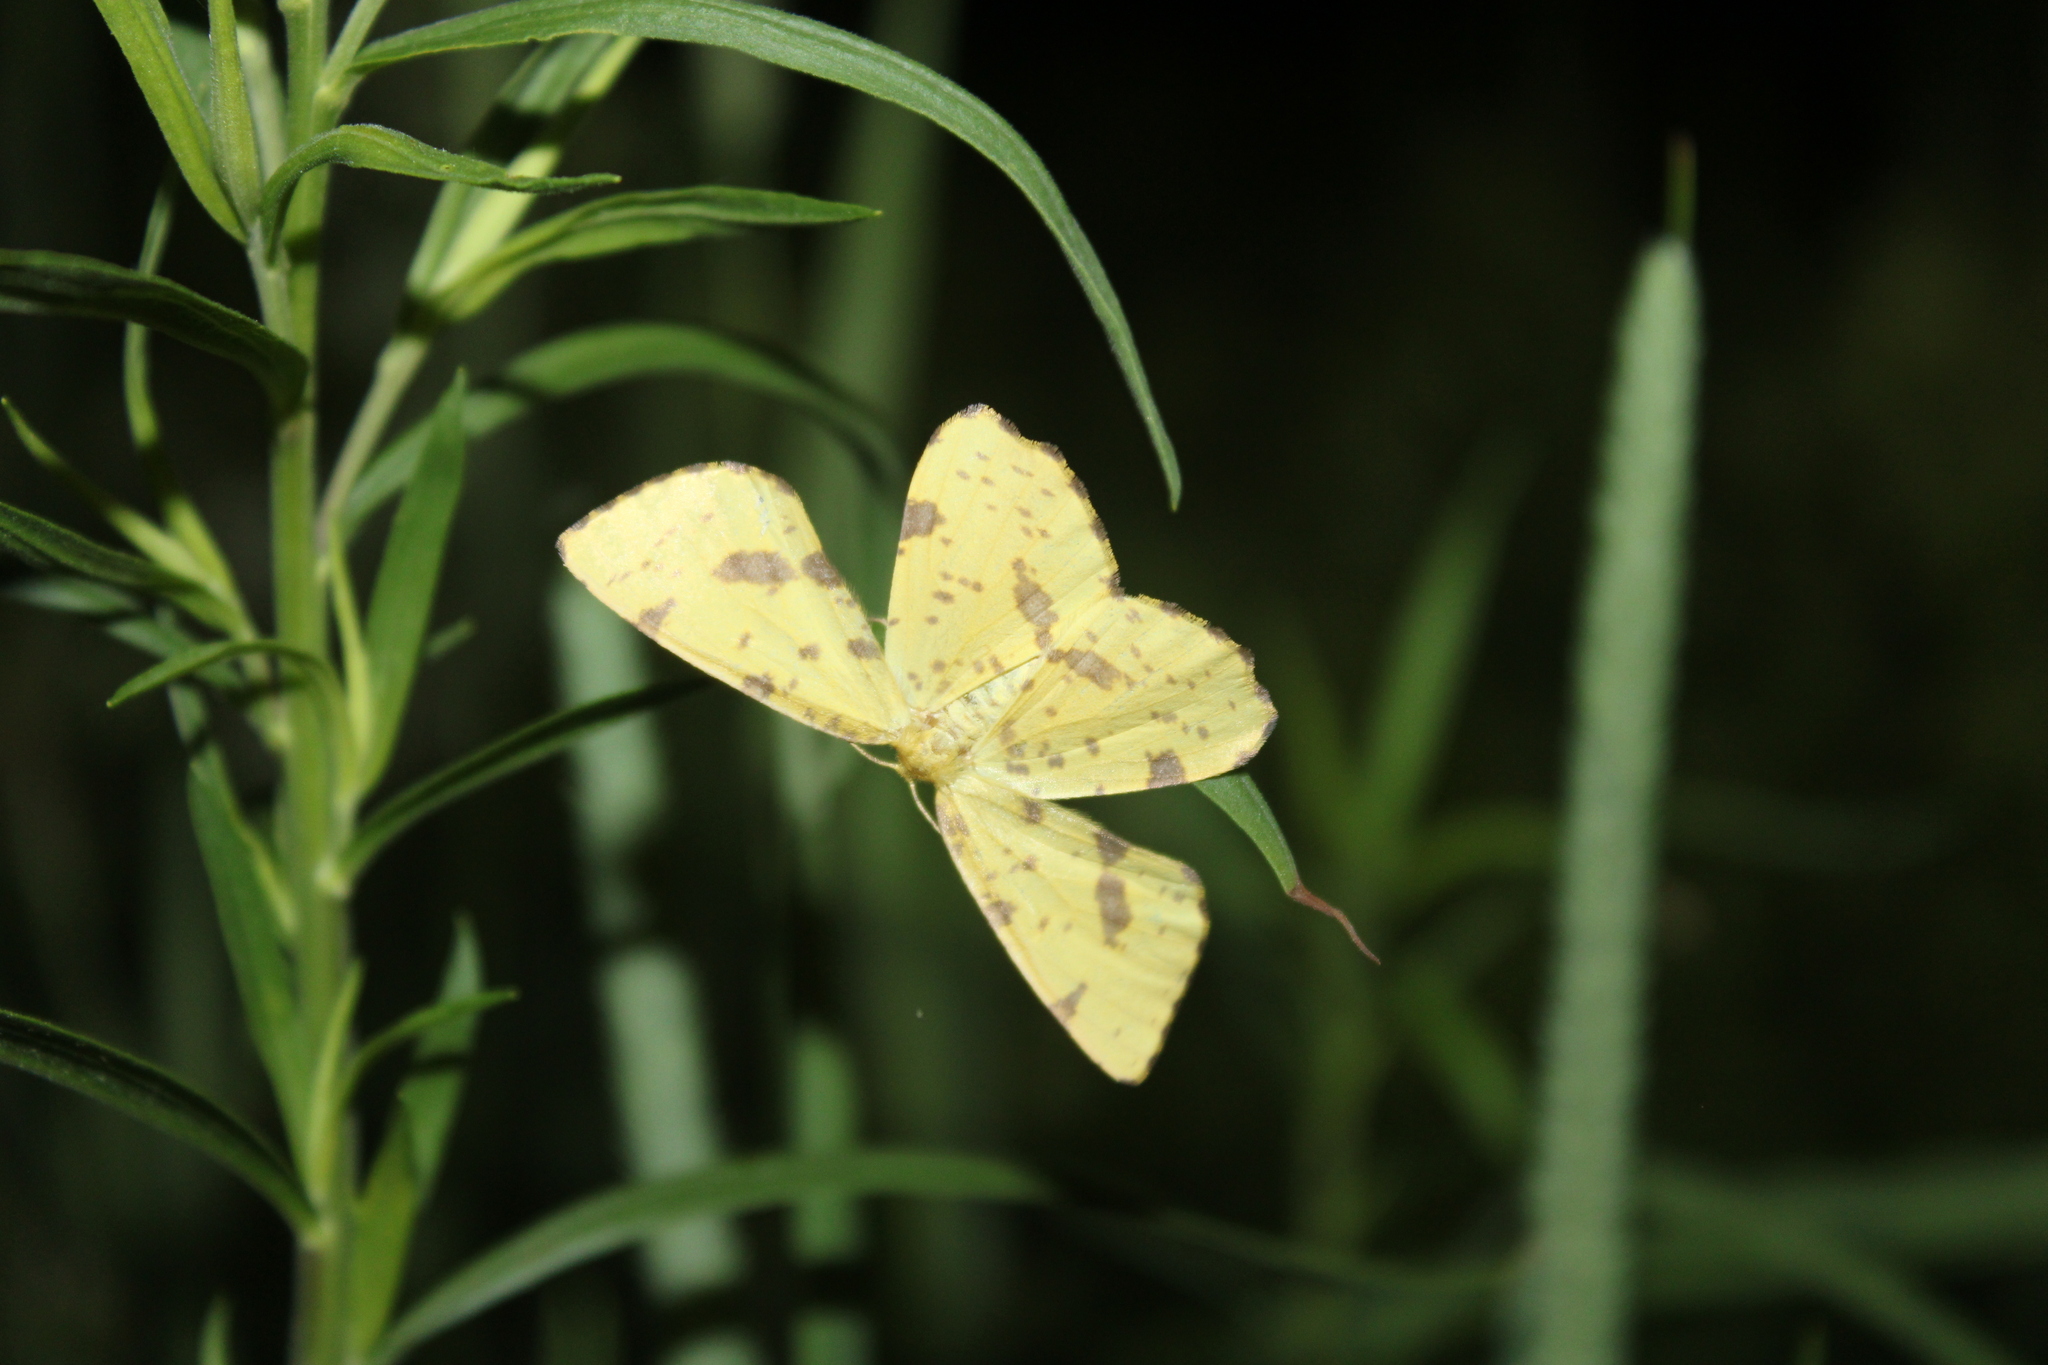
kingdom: Animalia
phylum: Arthropoda
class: Insecta
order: Lepidoptera
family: Geometridae
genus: Xanthotype
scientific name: Xanthotype
